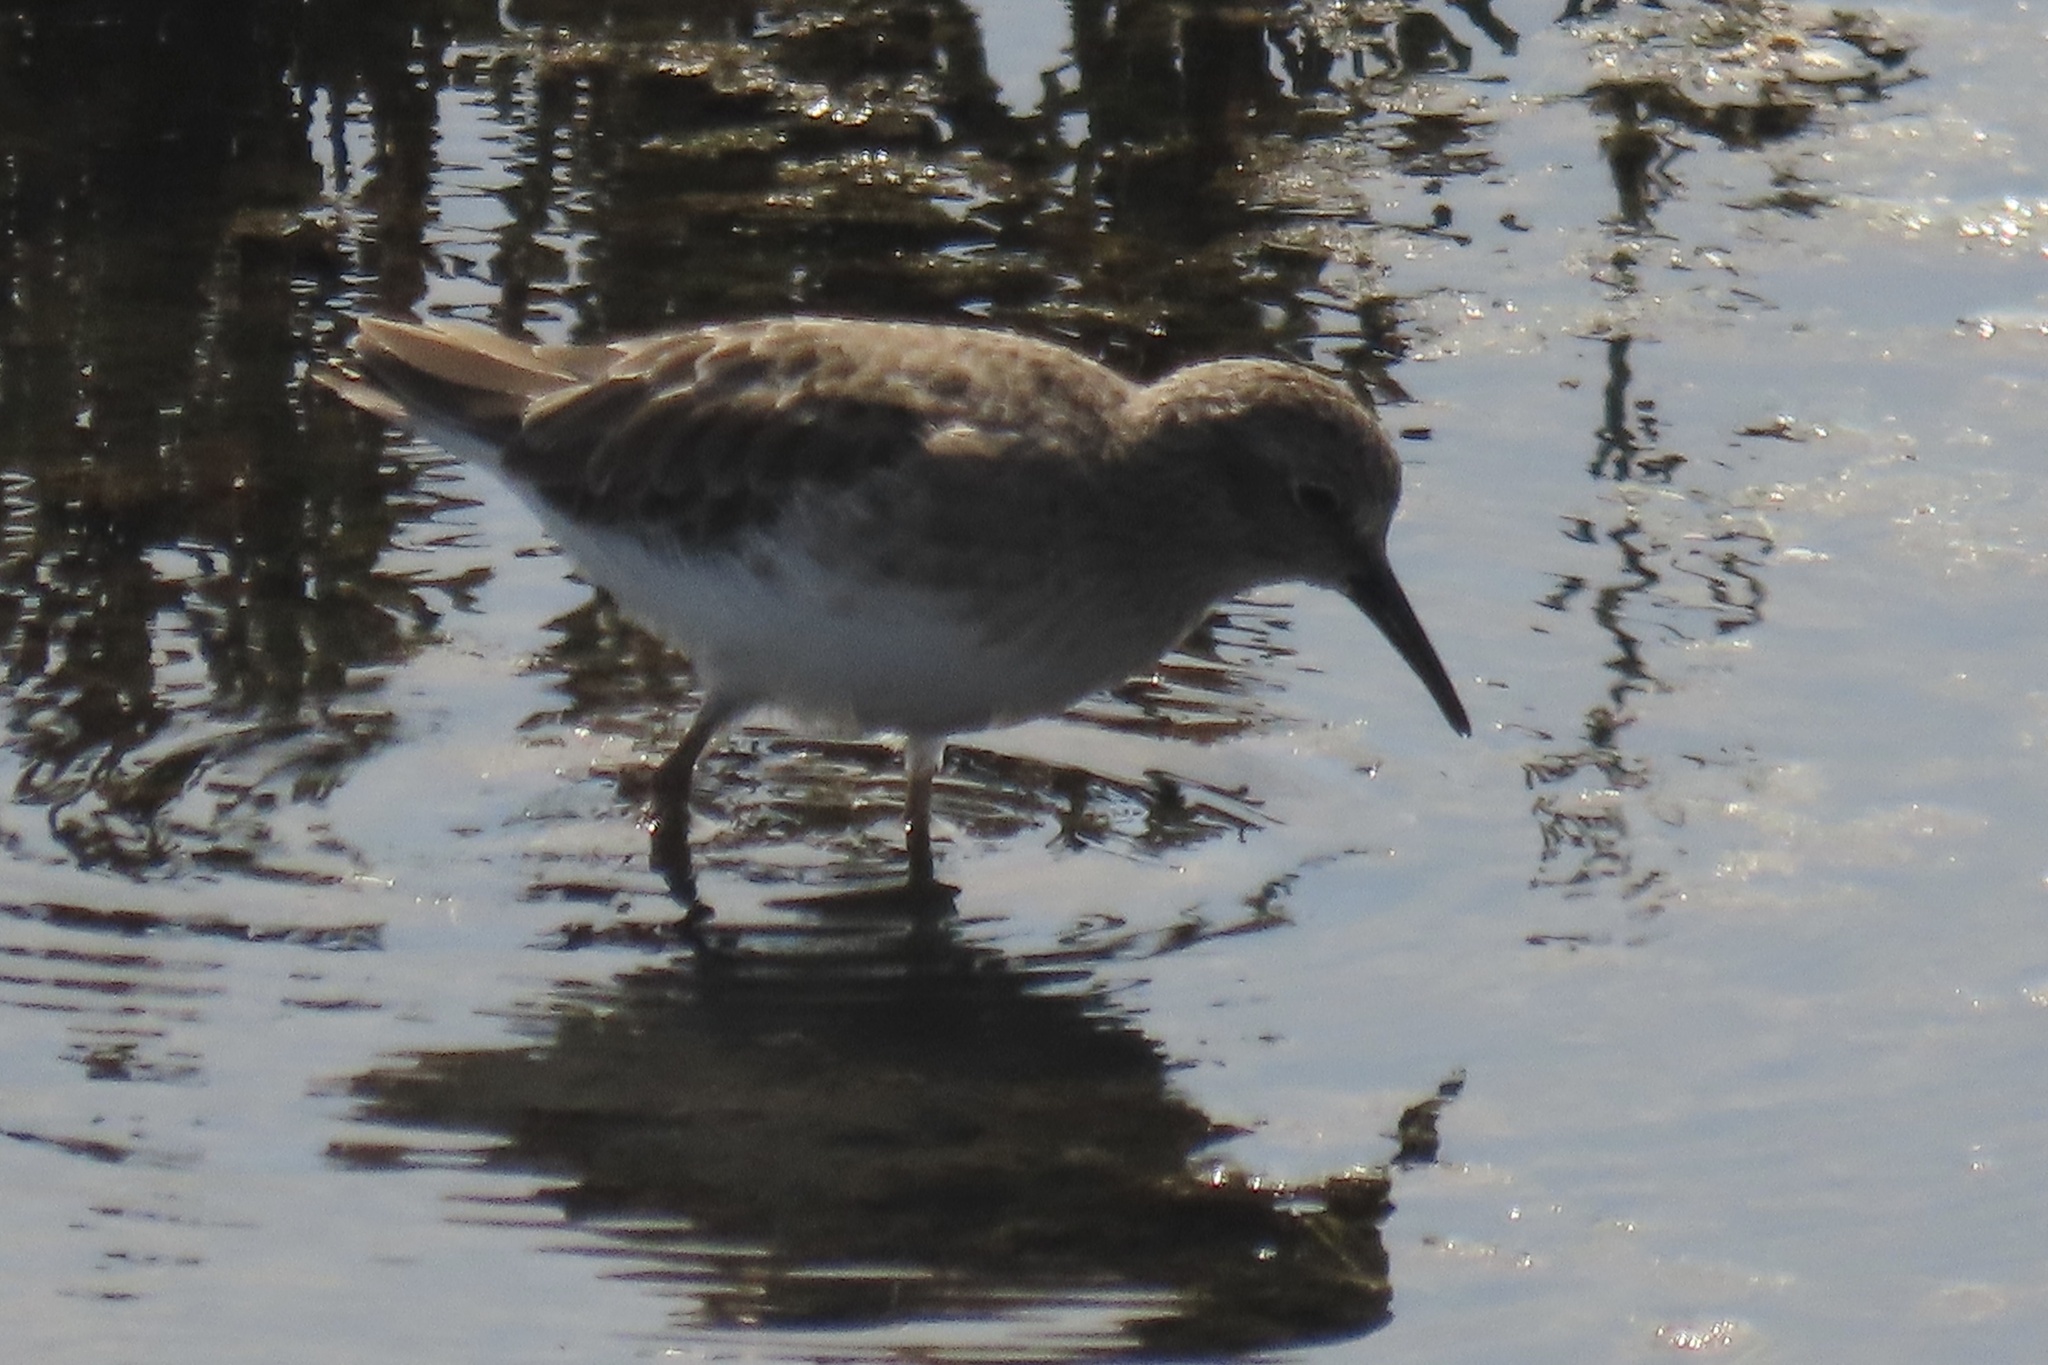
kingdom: Animalia
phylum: Chordata
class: Aves
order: Charadriiformes
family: Scolopacidae
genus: Calidris
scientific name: Calidris minutilla
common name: Least sandpiper
